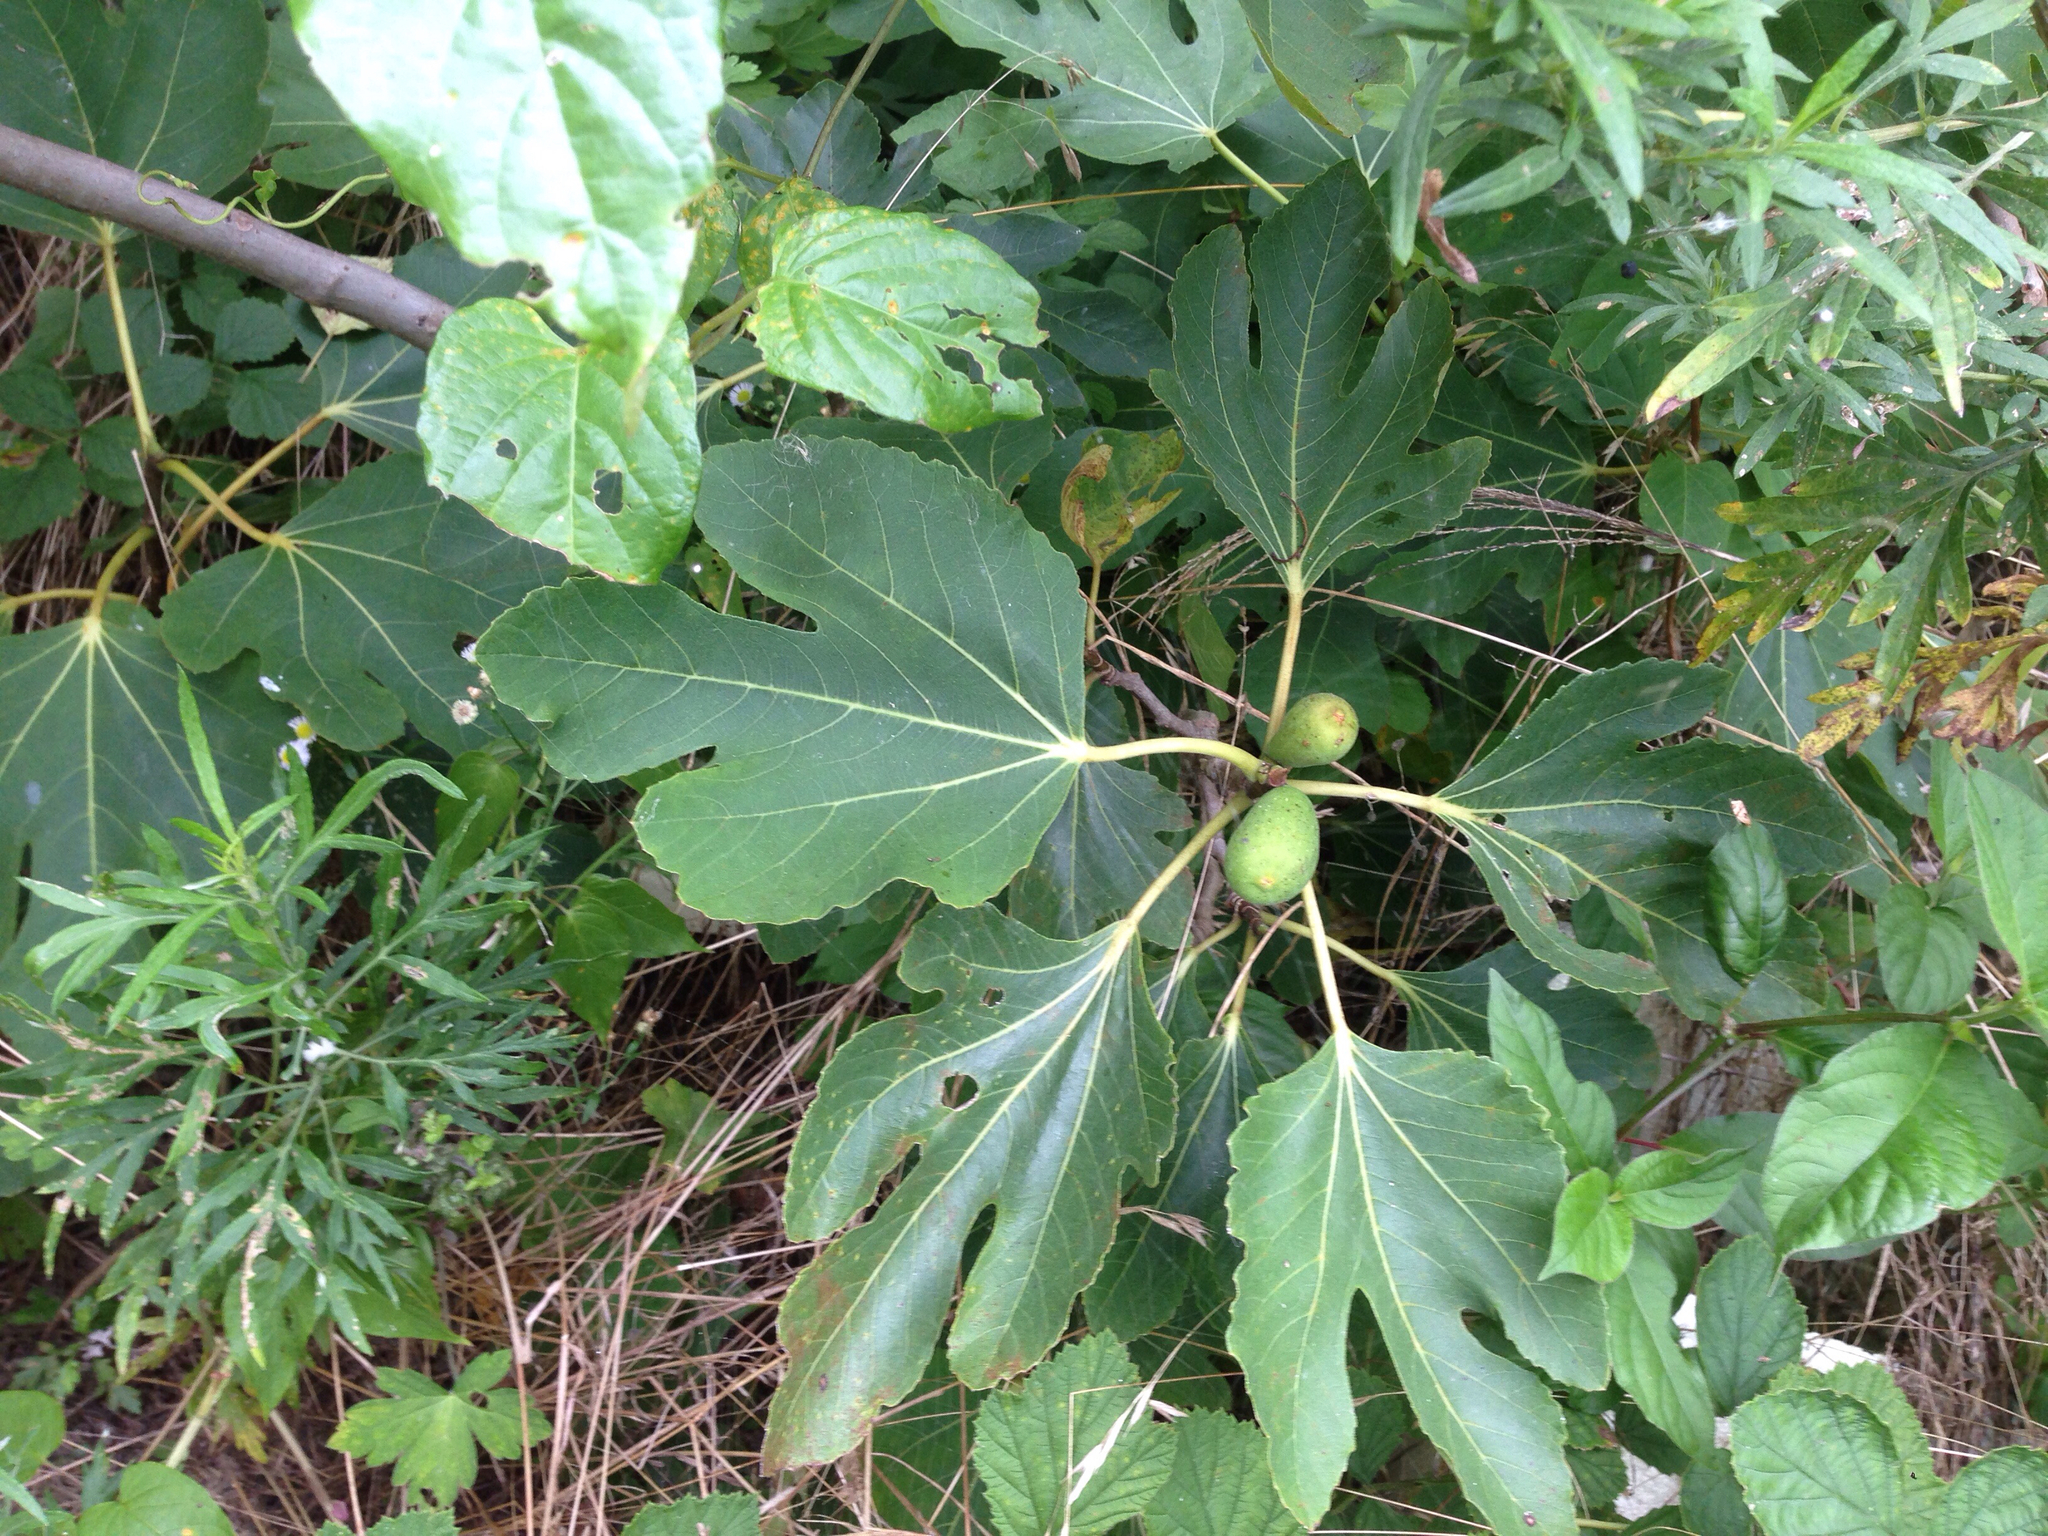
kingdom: Plantae
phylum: Tracheophyta
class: Magnoliopsida
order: Rosales
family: Moraceae
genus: Ficus
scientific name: Ficus carica
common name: Fig
